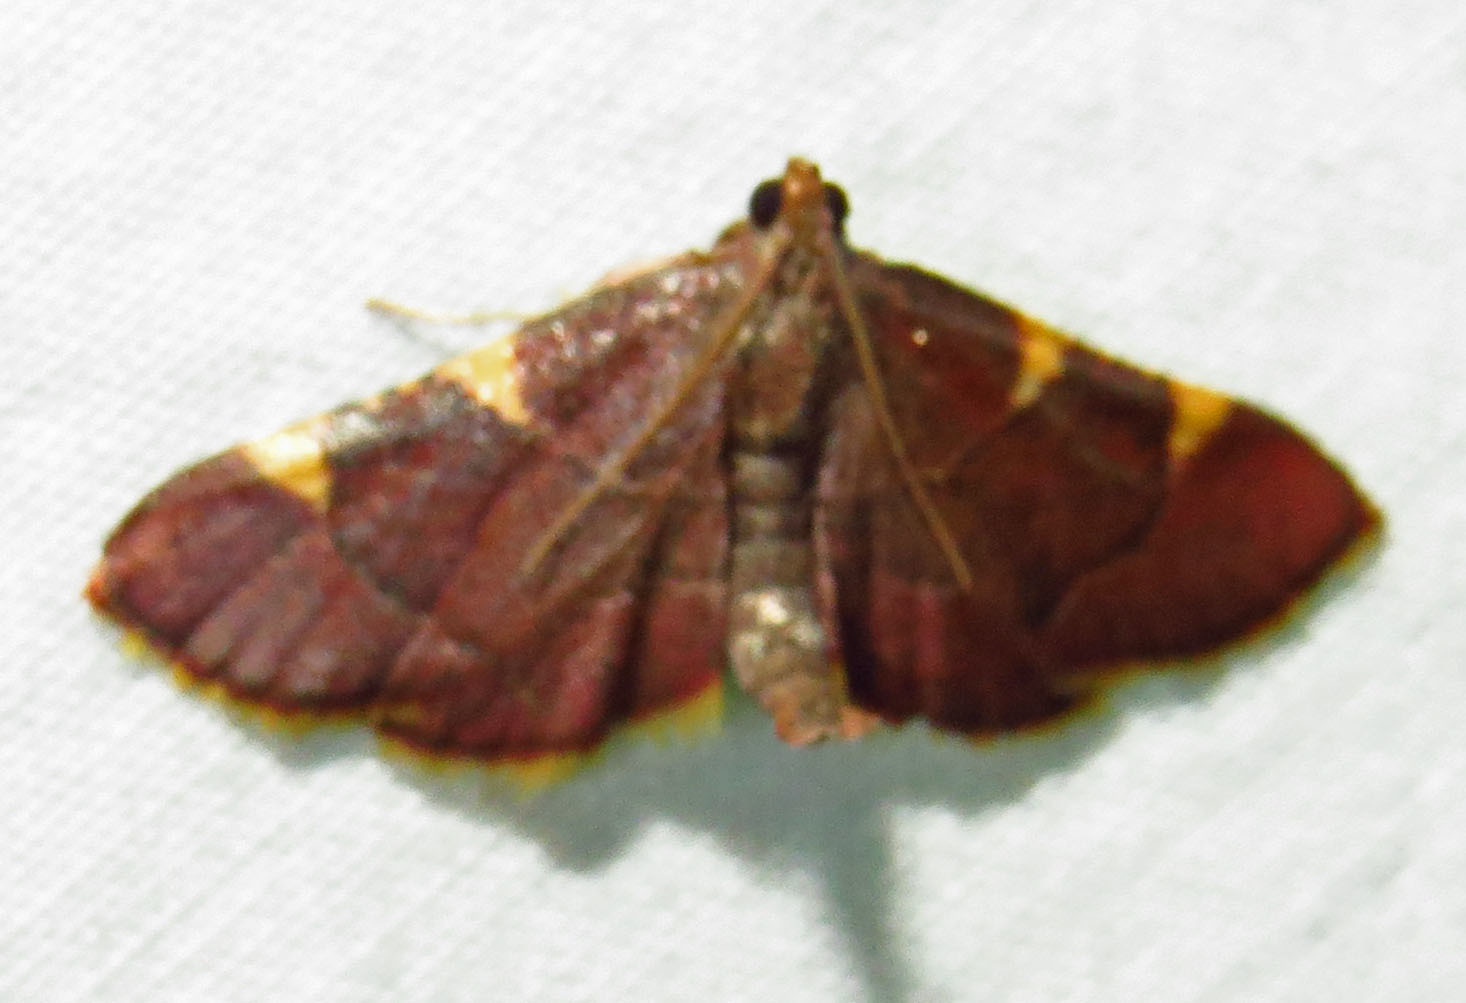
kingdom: Animalia
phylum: Arthropoda
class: Insecta
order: Lepidoptera
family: Pyralidae
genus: Hypsopygia
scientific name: Hypsopygia olinalis
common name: Yellow-fringed dolichomia moth
